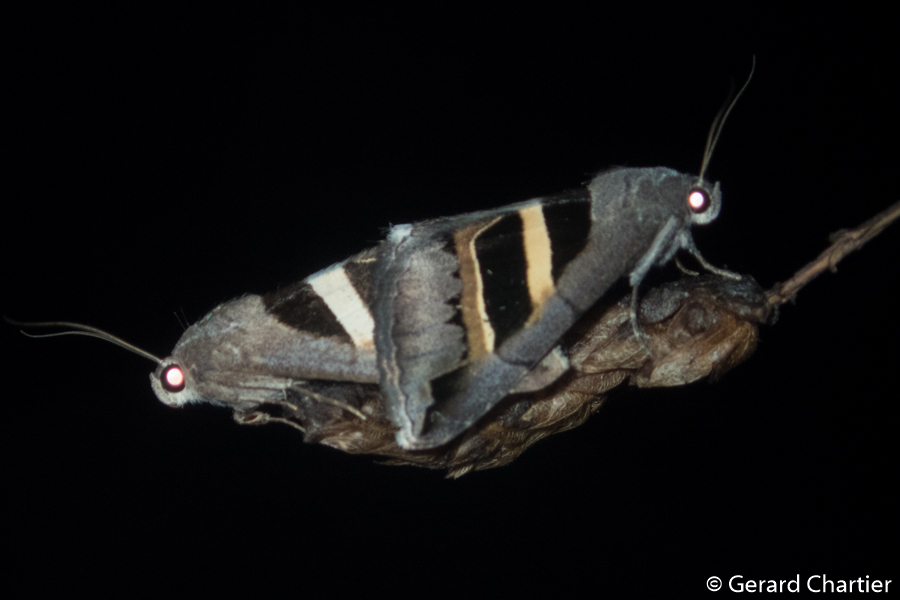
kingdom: Animalia
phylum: Arthropoda
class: Insecta
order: Lepidoptera
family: Erebidae
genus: Grammodes
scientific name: Grammodes geometrica
